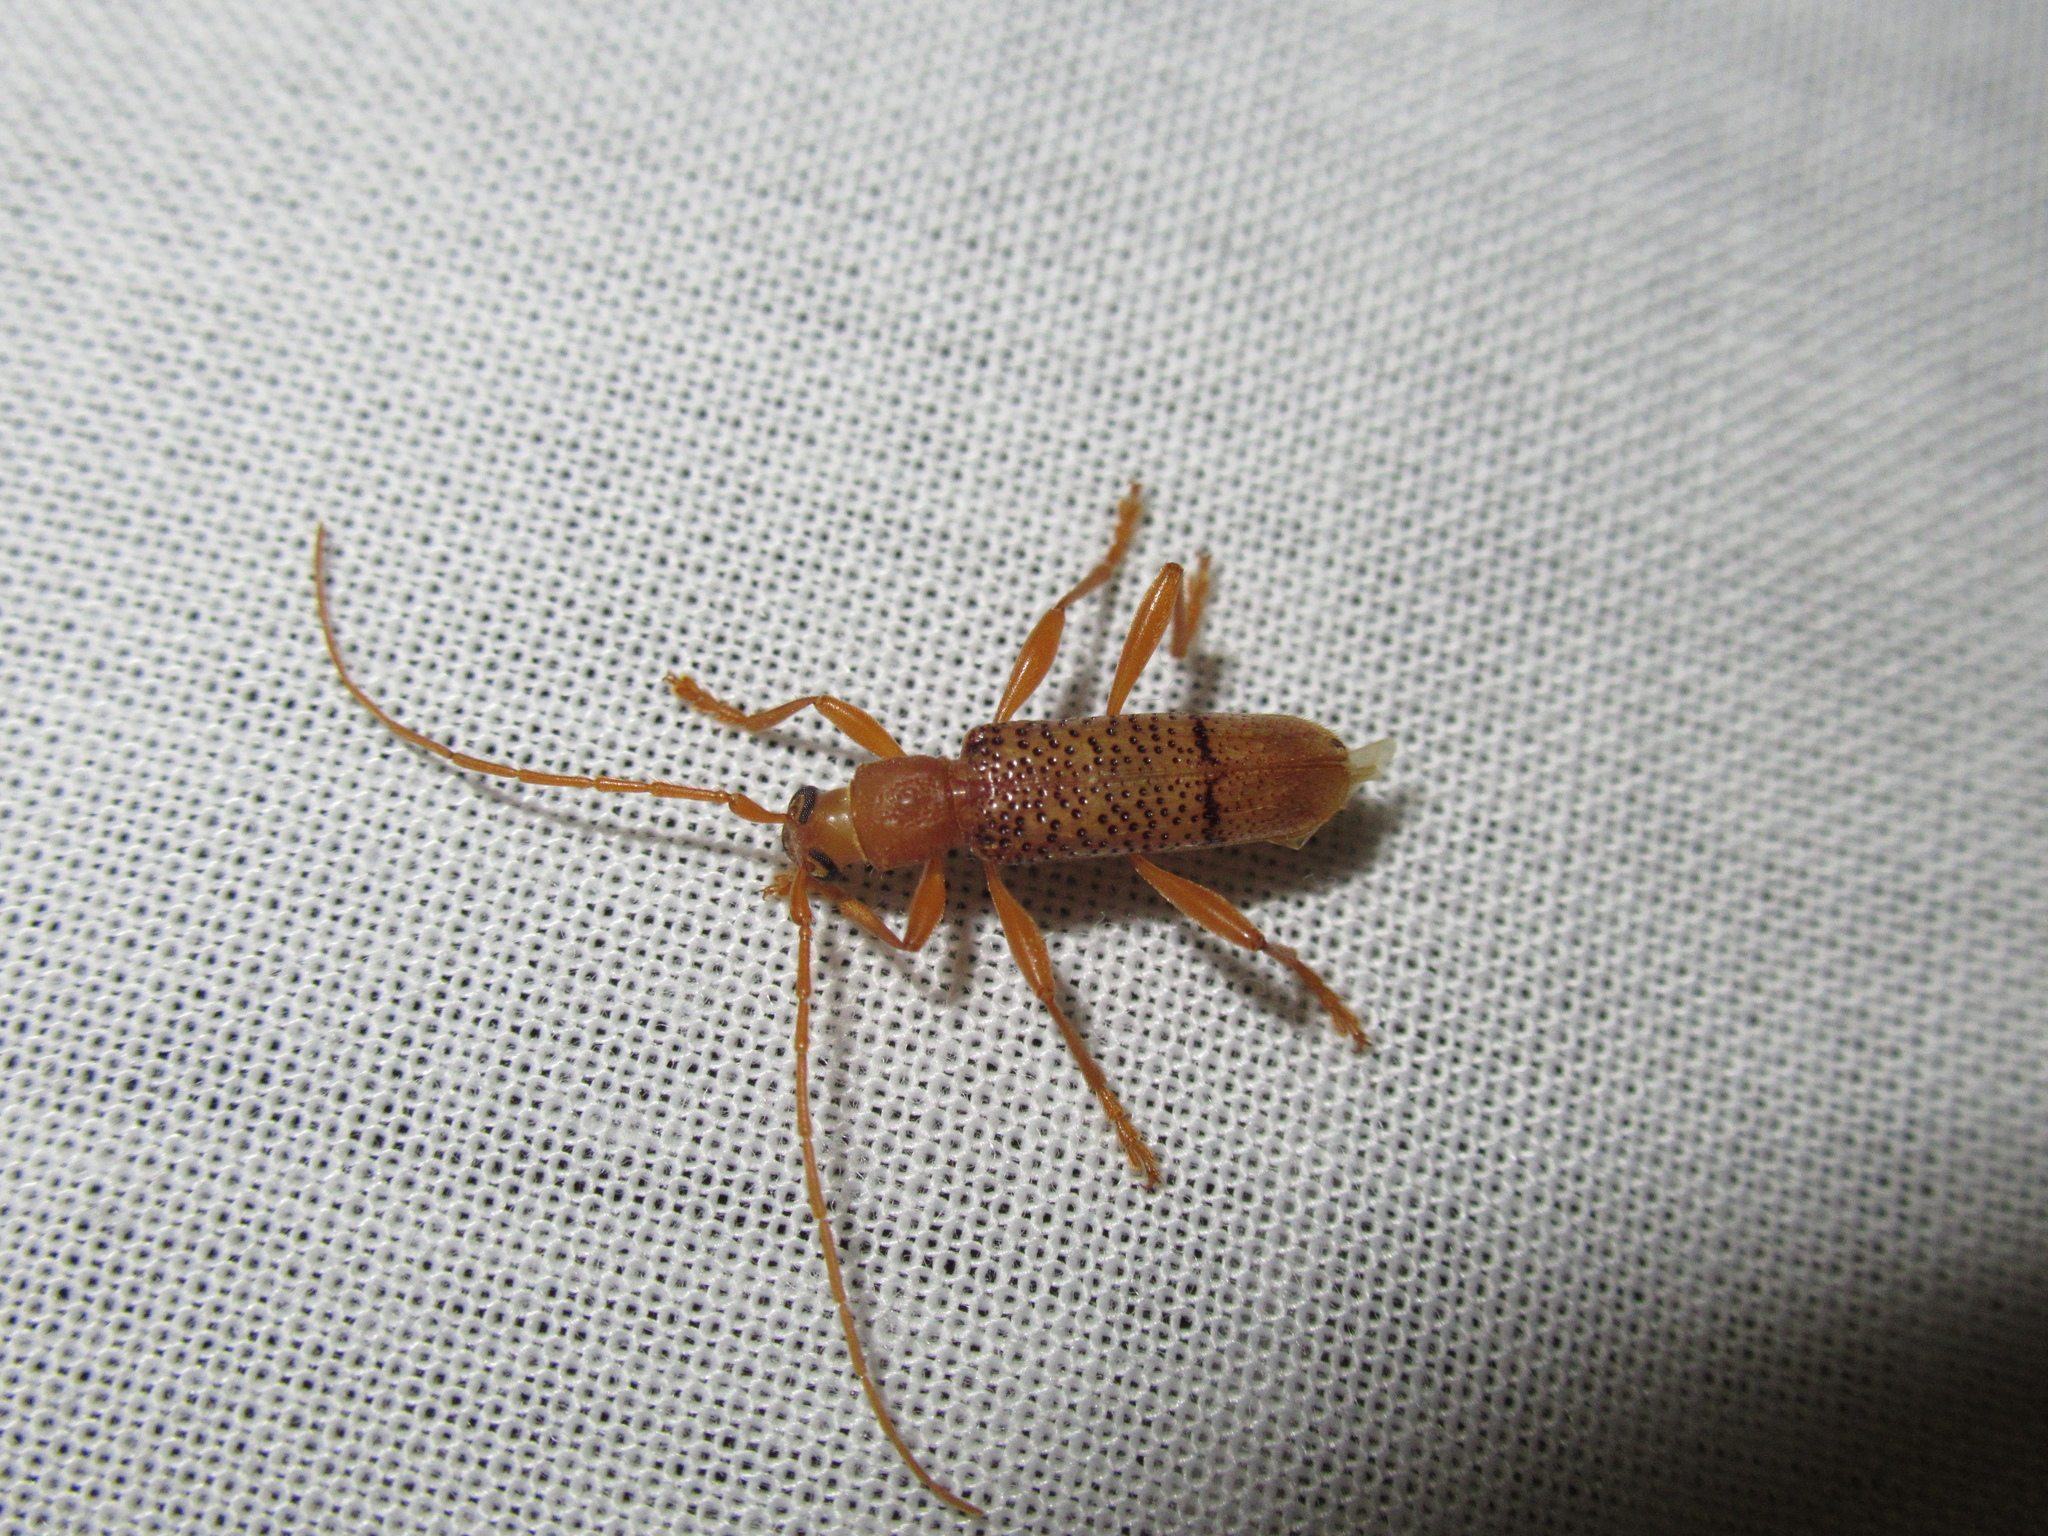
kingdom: Animalia
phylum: Arthropoda
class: Insecta
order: Coleoptera
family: Cerambycidae
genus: Xuthodes
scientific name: Xuthodes punctipennis
